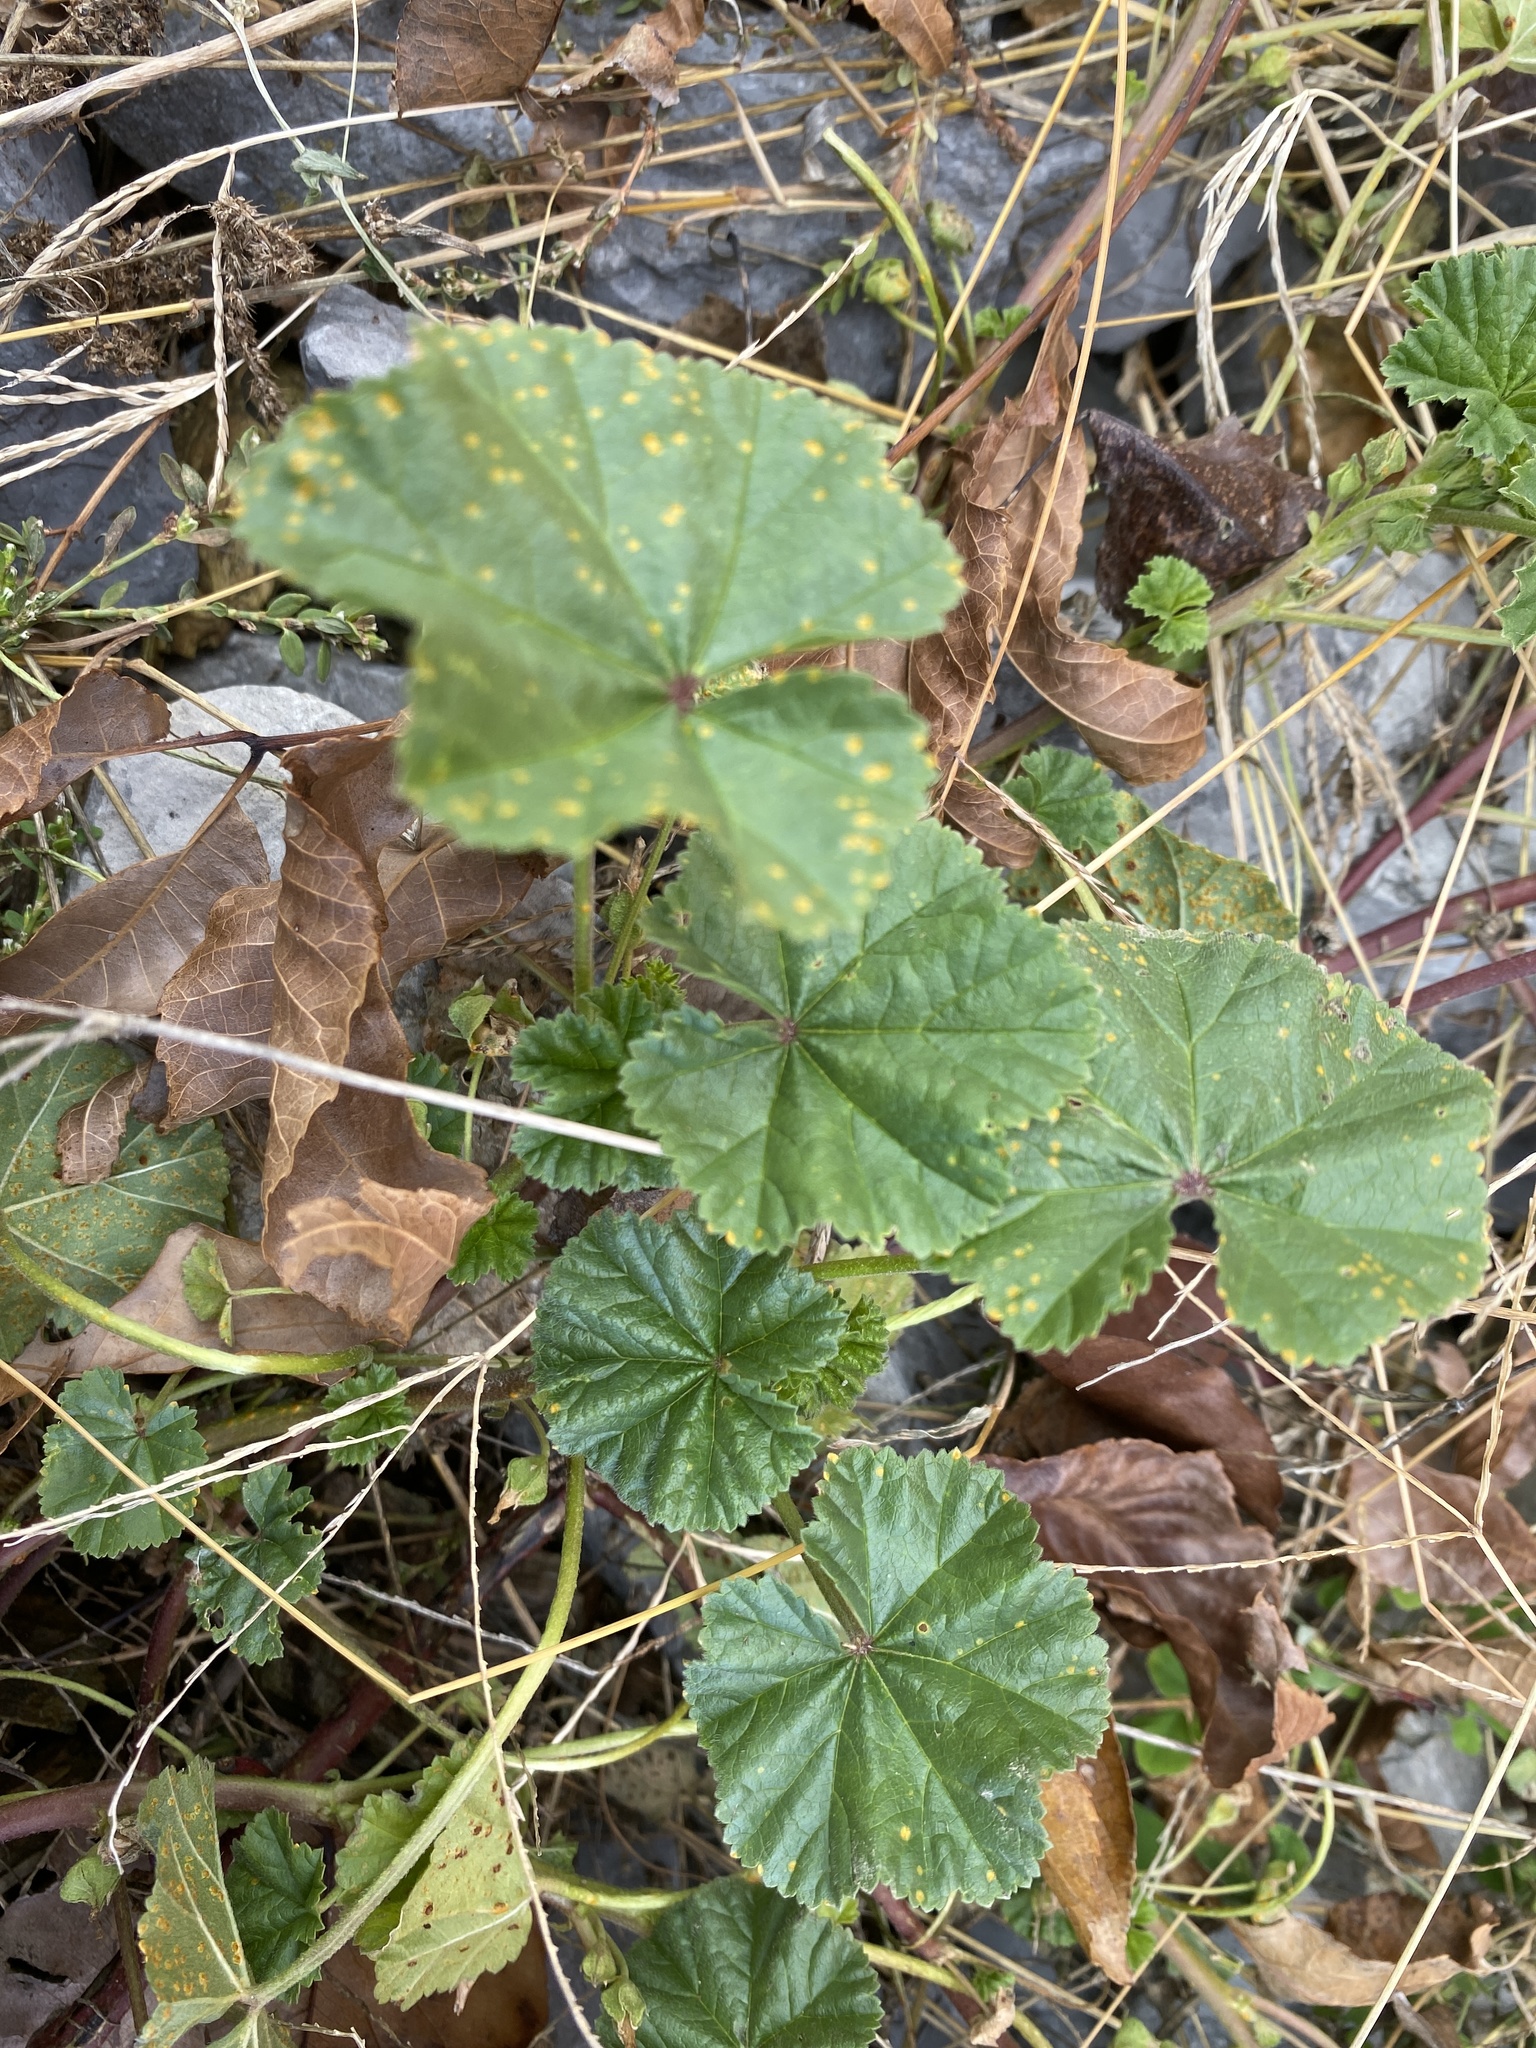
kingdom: Plantae
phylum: Tracheophyta
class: Magnoliopsida
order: Malvales
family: Malvaceae
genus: Malva
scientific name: Malva neglecta
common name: Common mallow
